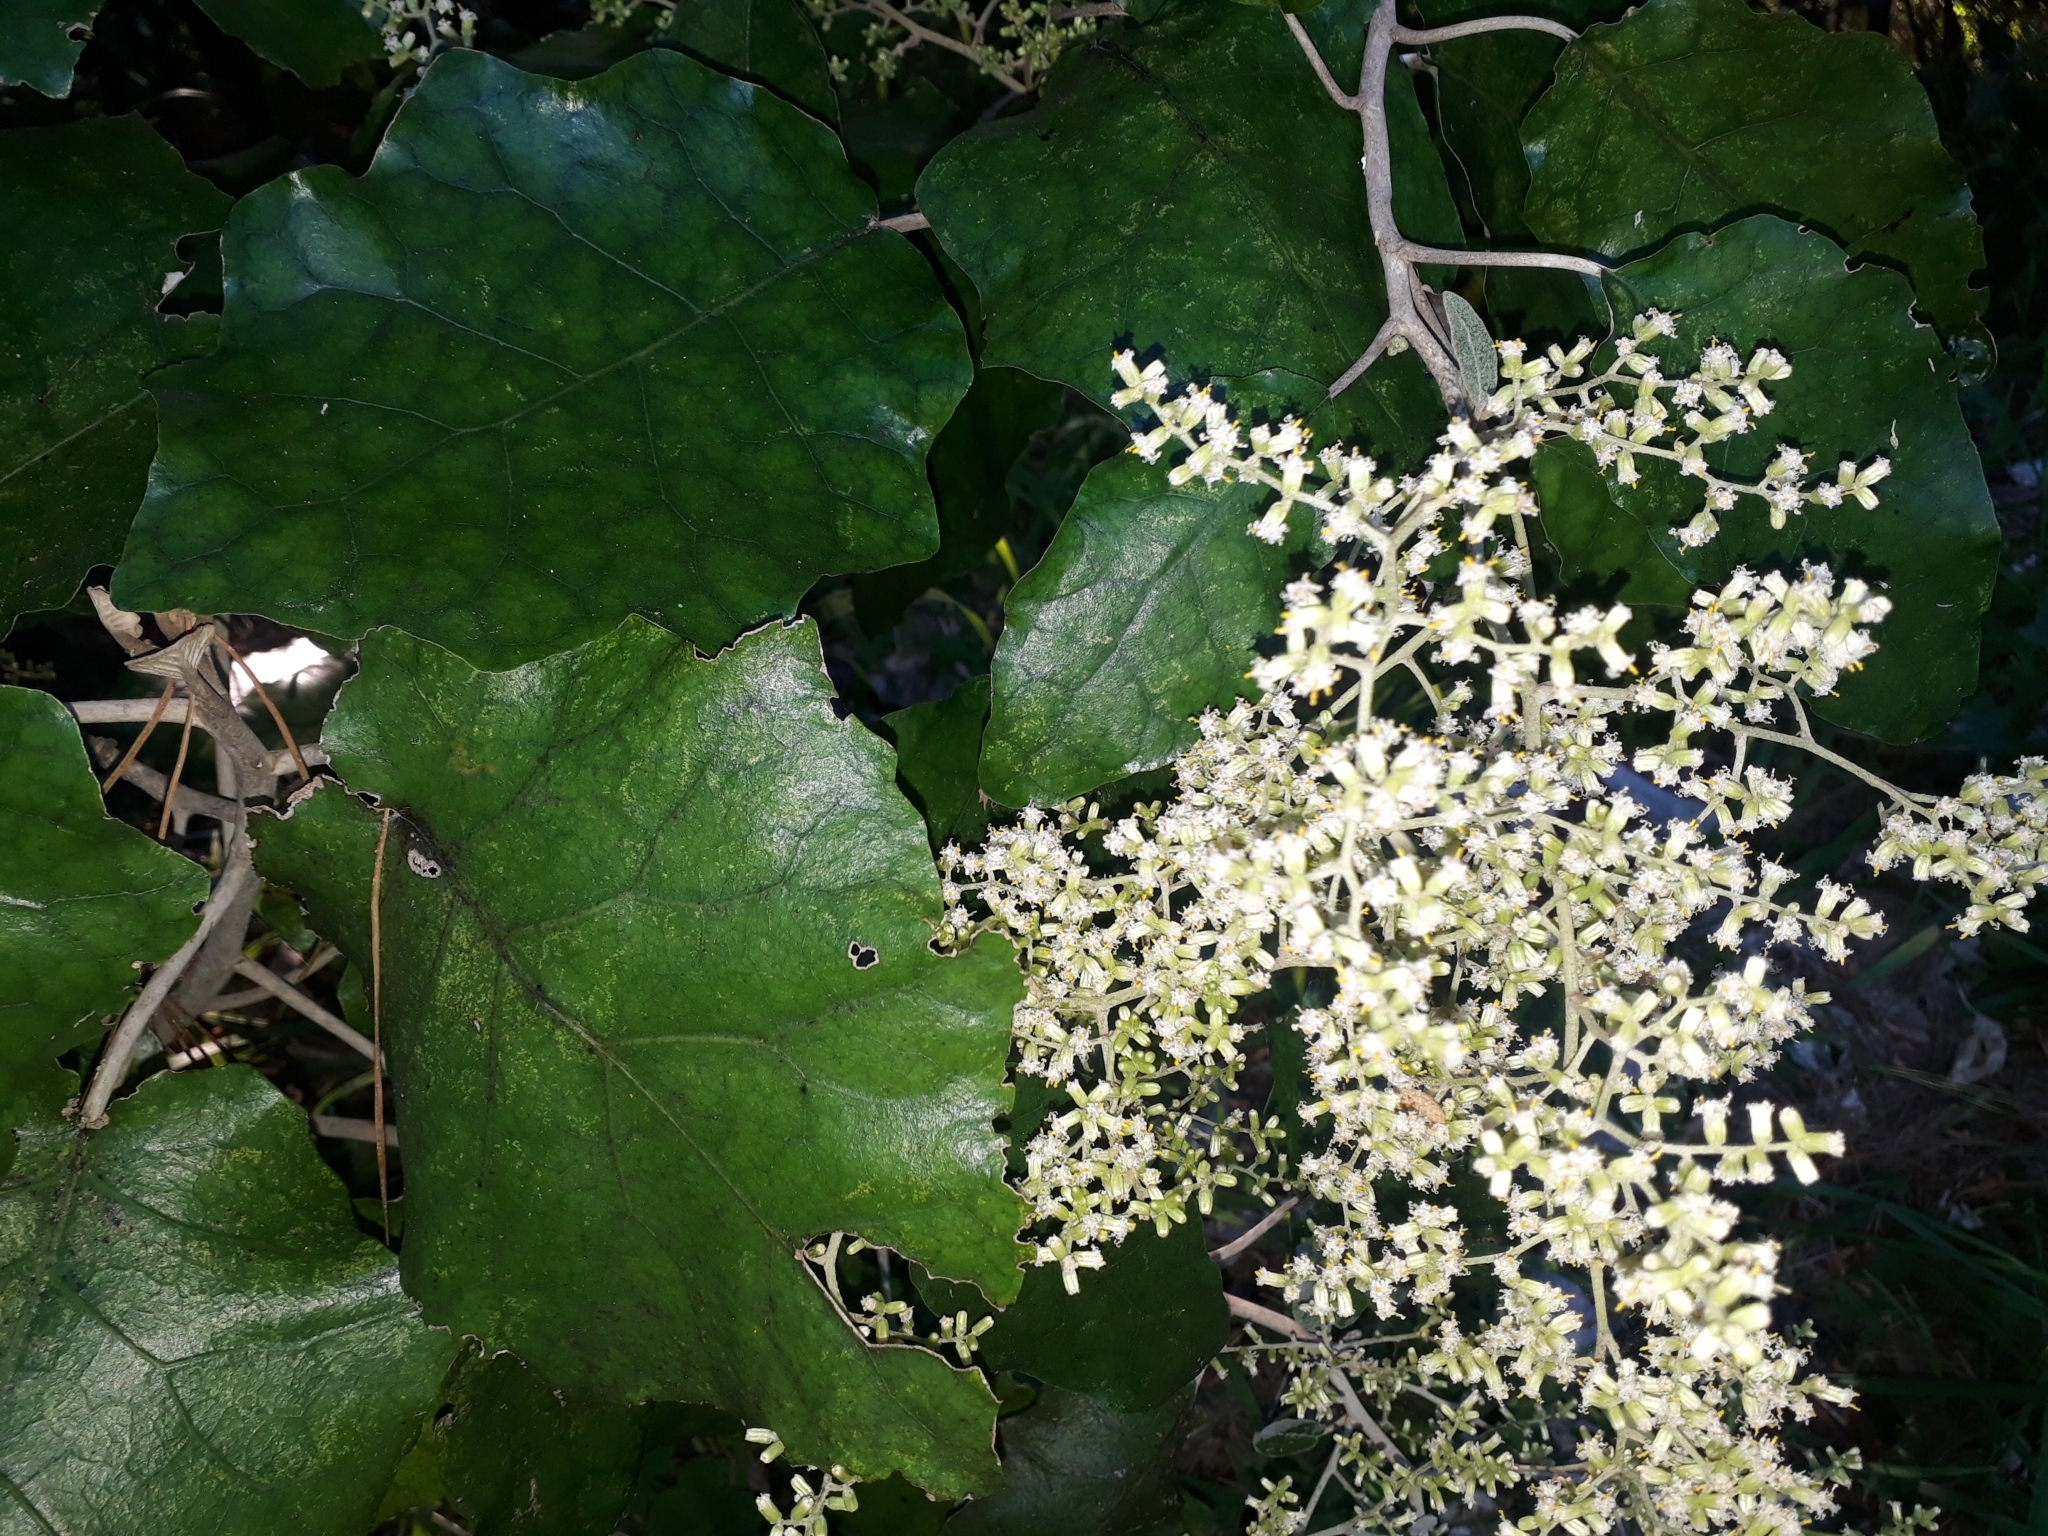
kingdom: Plantae
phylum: Tracheophyta
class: Magnoliopsida
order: Asterales
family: Asteraceae
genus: Brachyglottis
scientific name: Brachyglottis repanda
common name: Hedge ragwort
